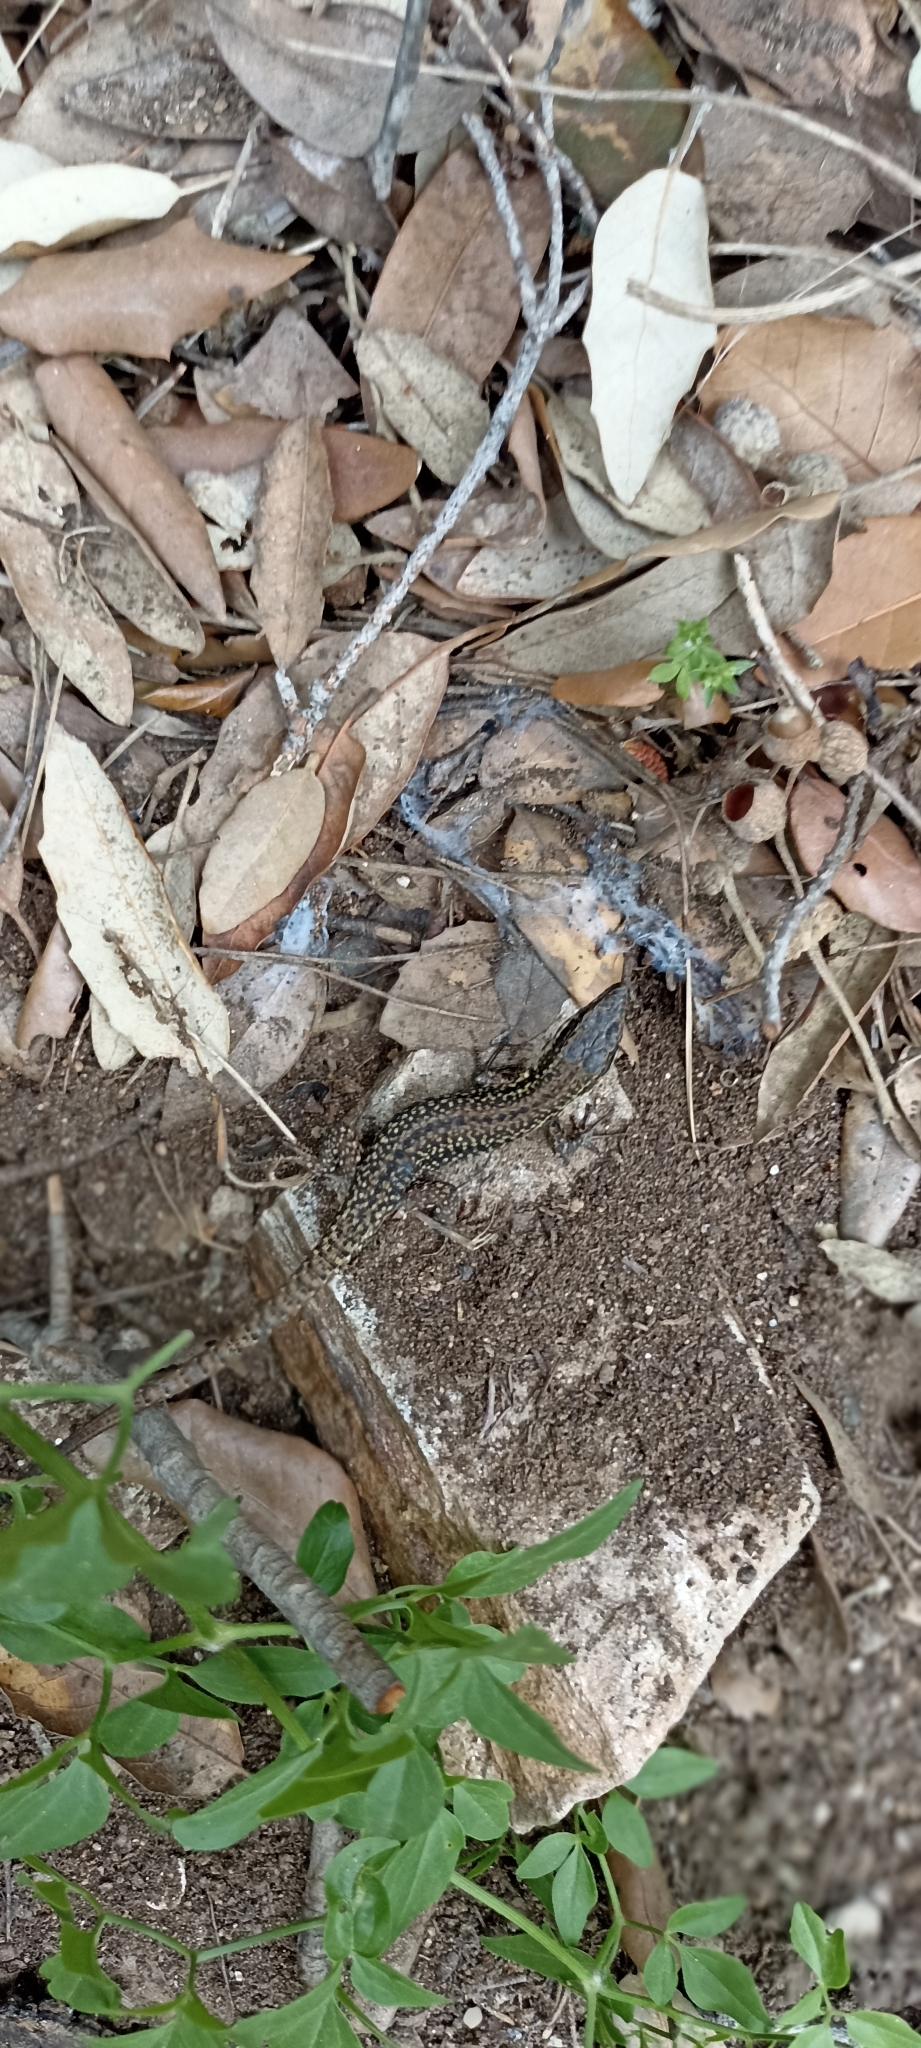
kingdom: Animalia
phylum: Chordata
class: Squamata
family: Lacertidae
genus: Podarcis
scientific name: Podarcis muralis
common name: Common wall lizard
